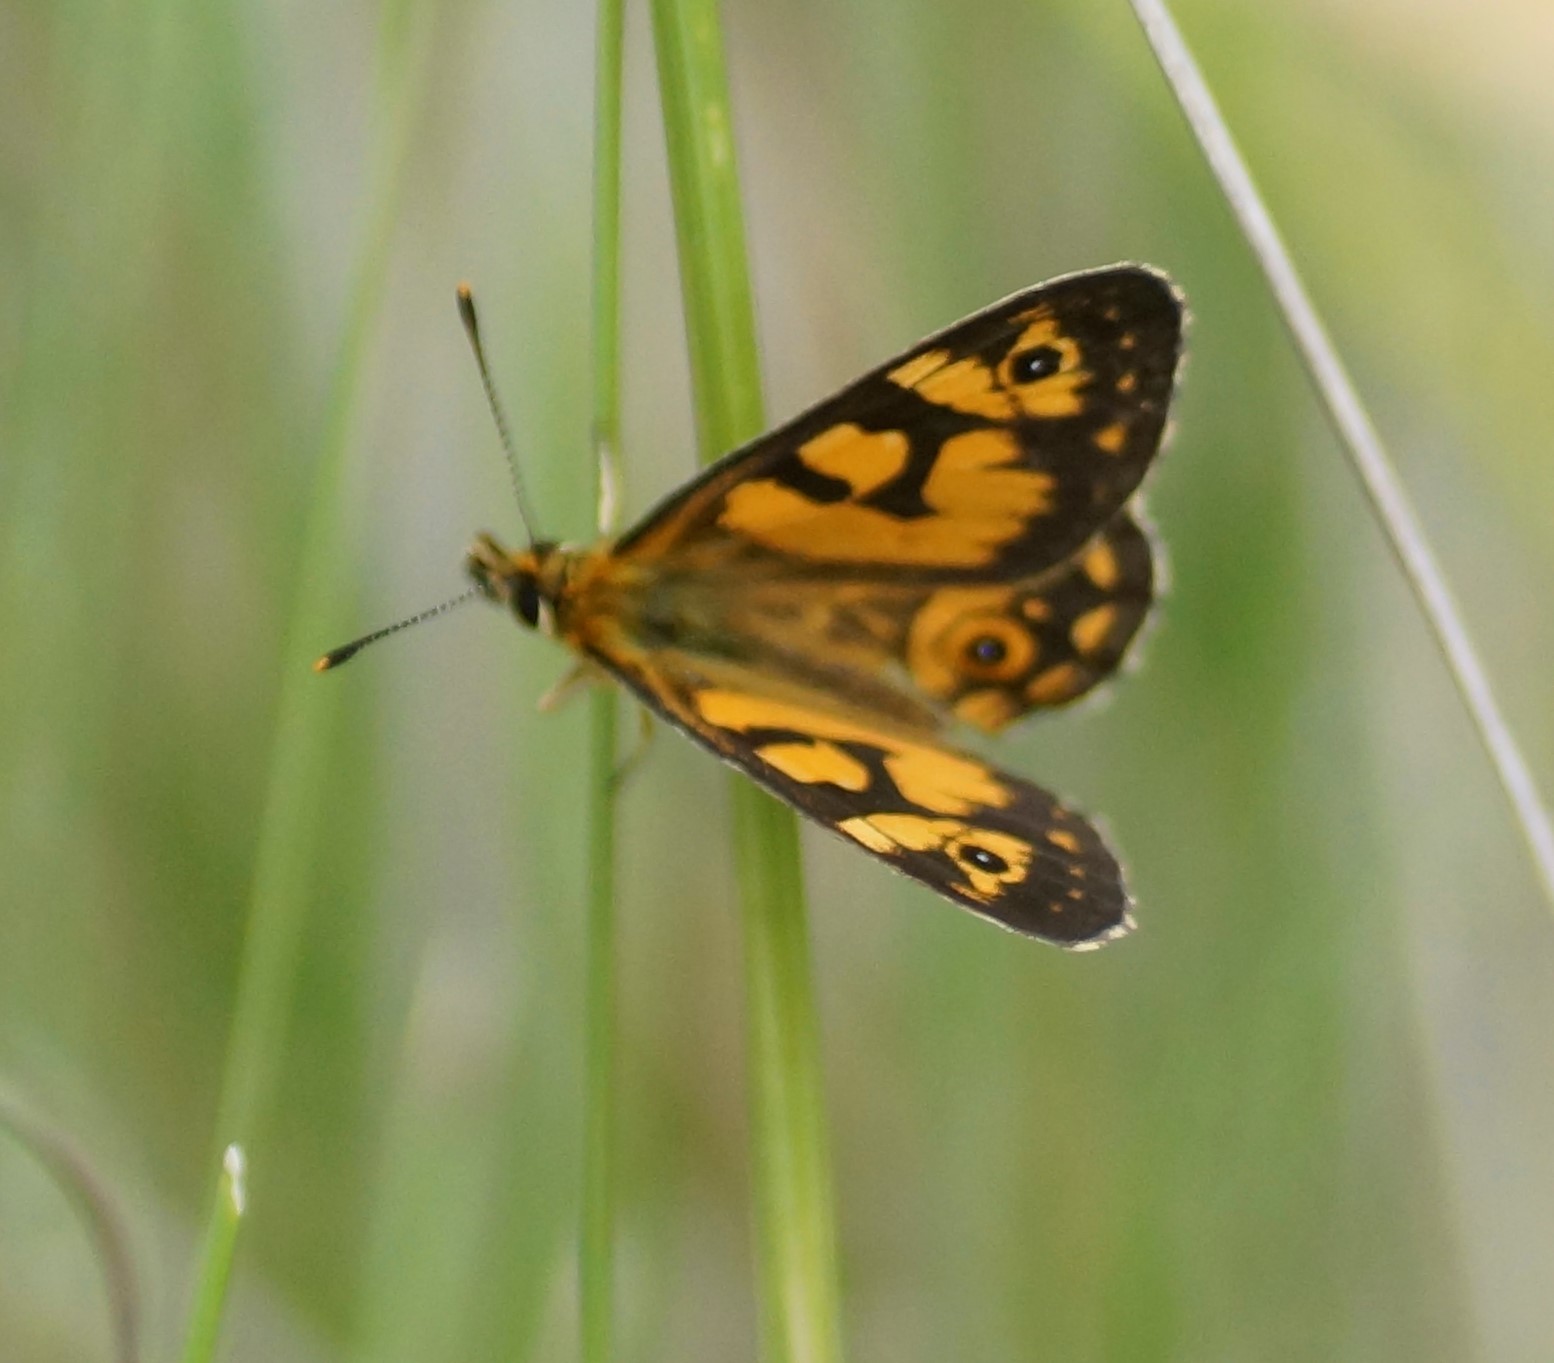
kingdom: Animalia
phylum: Arthropoda
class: Insecta
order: Lepidoptera
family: Nymphalidae
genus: Oreixenica
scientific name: Oreixenica lathoniella
